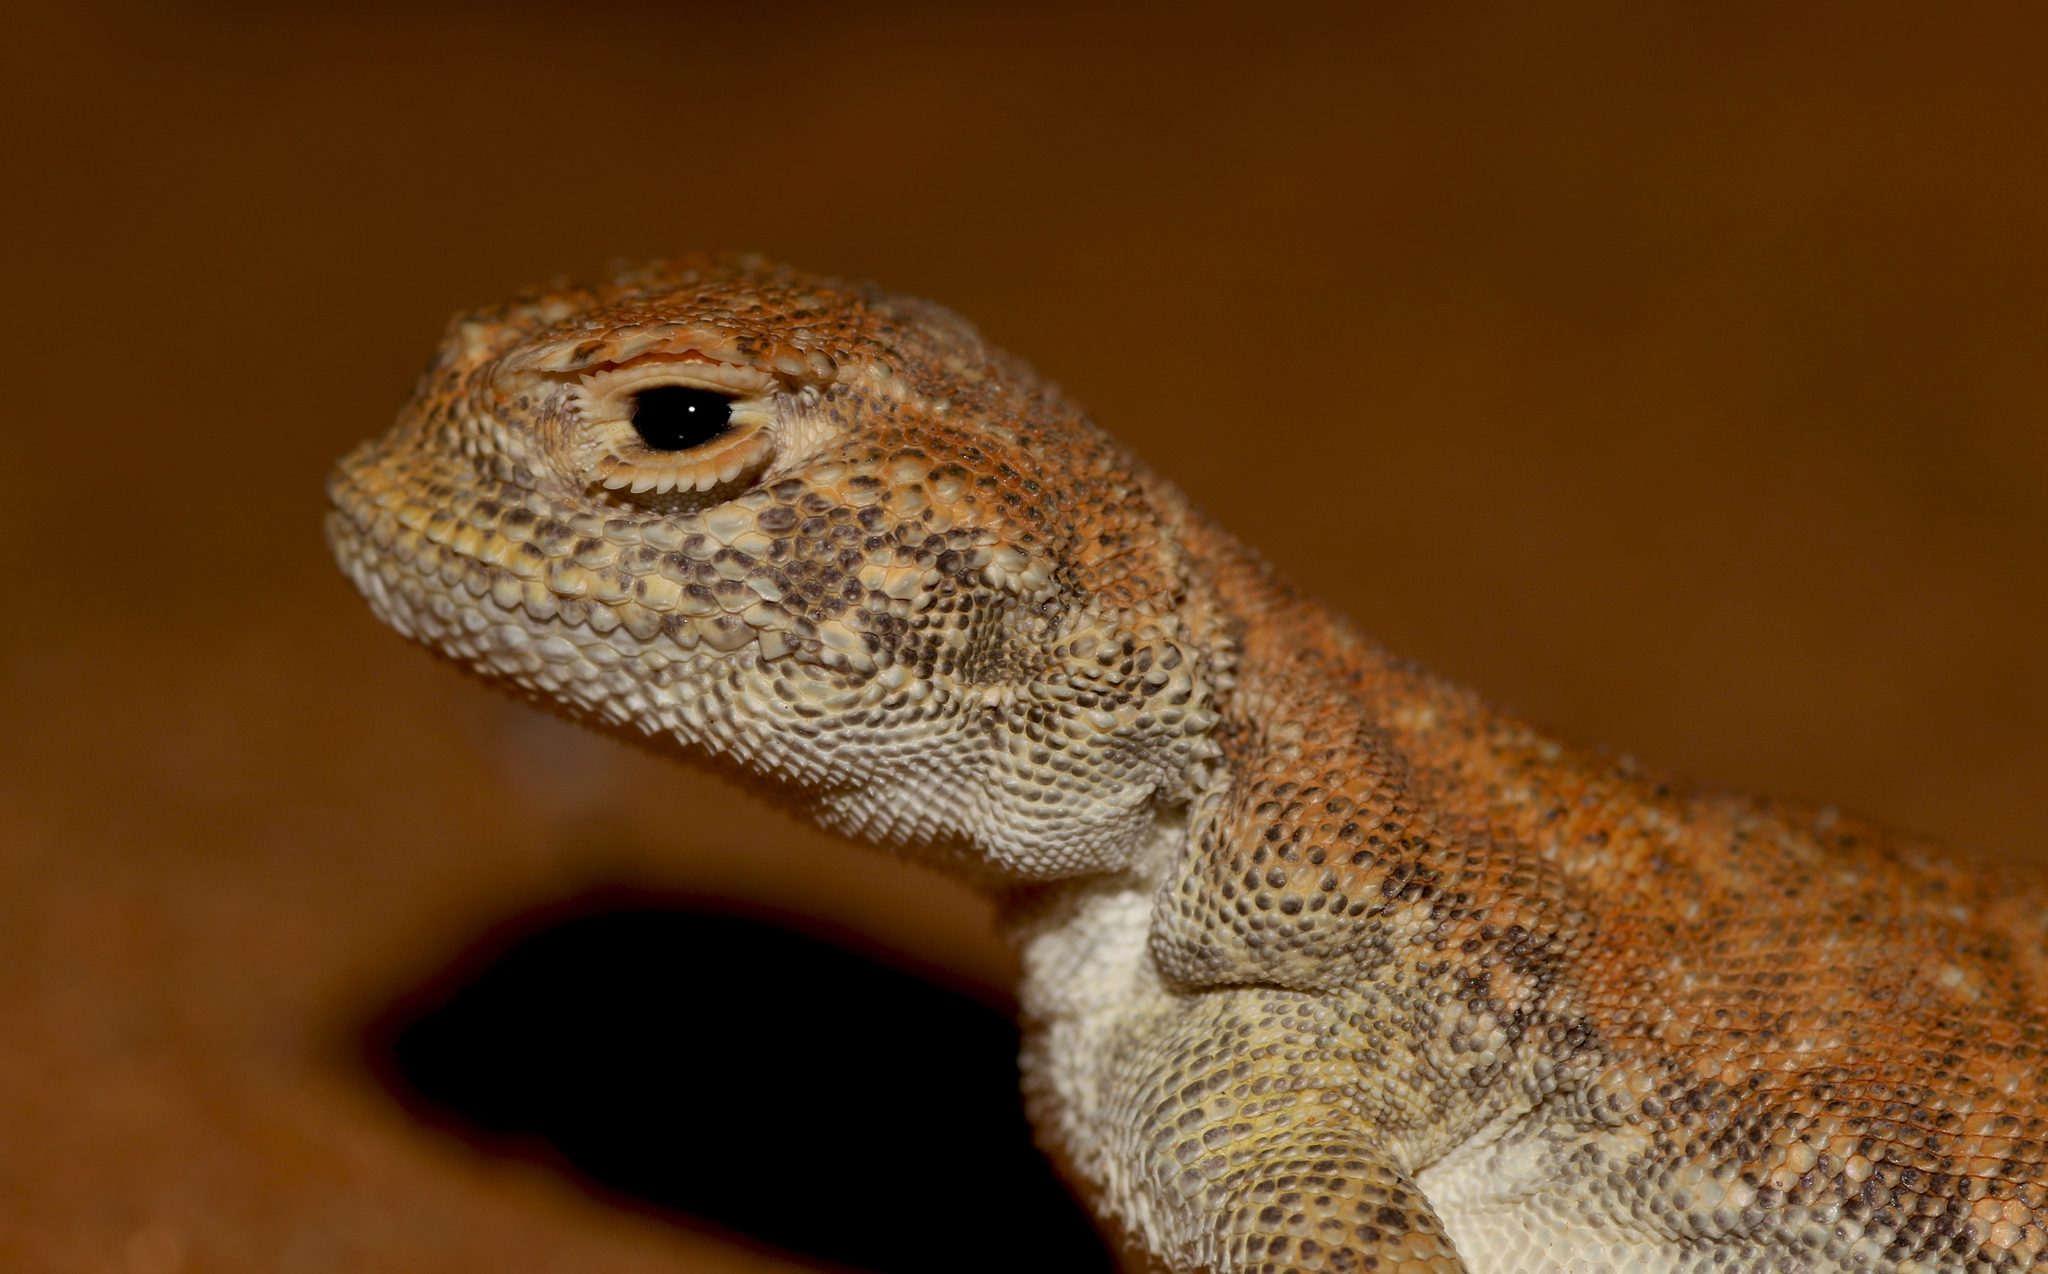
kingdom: Animalia
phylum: Chordata
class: Squamata
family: Agamidae
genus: Phrynocephalus
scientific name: Phrynocephalus arabicus
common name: Arabian toad-headed agama
